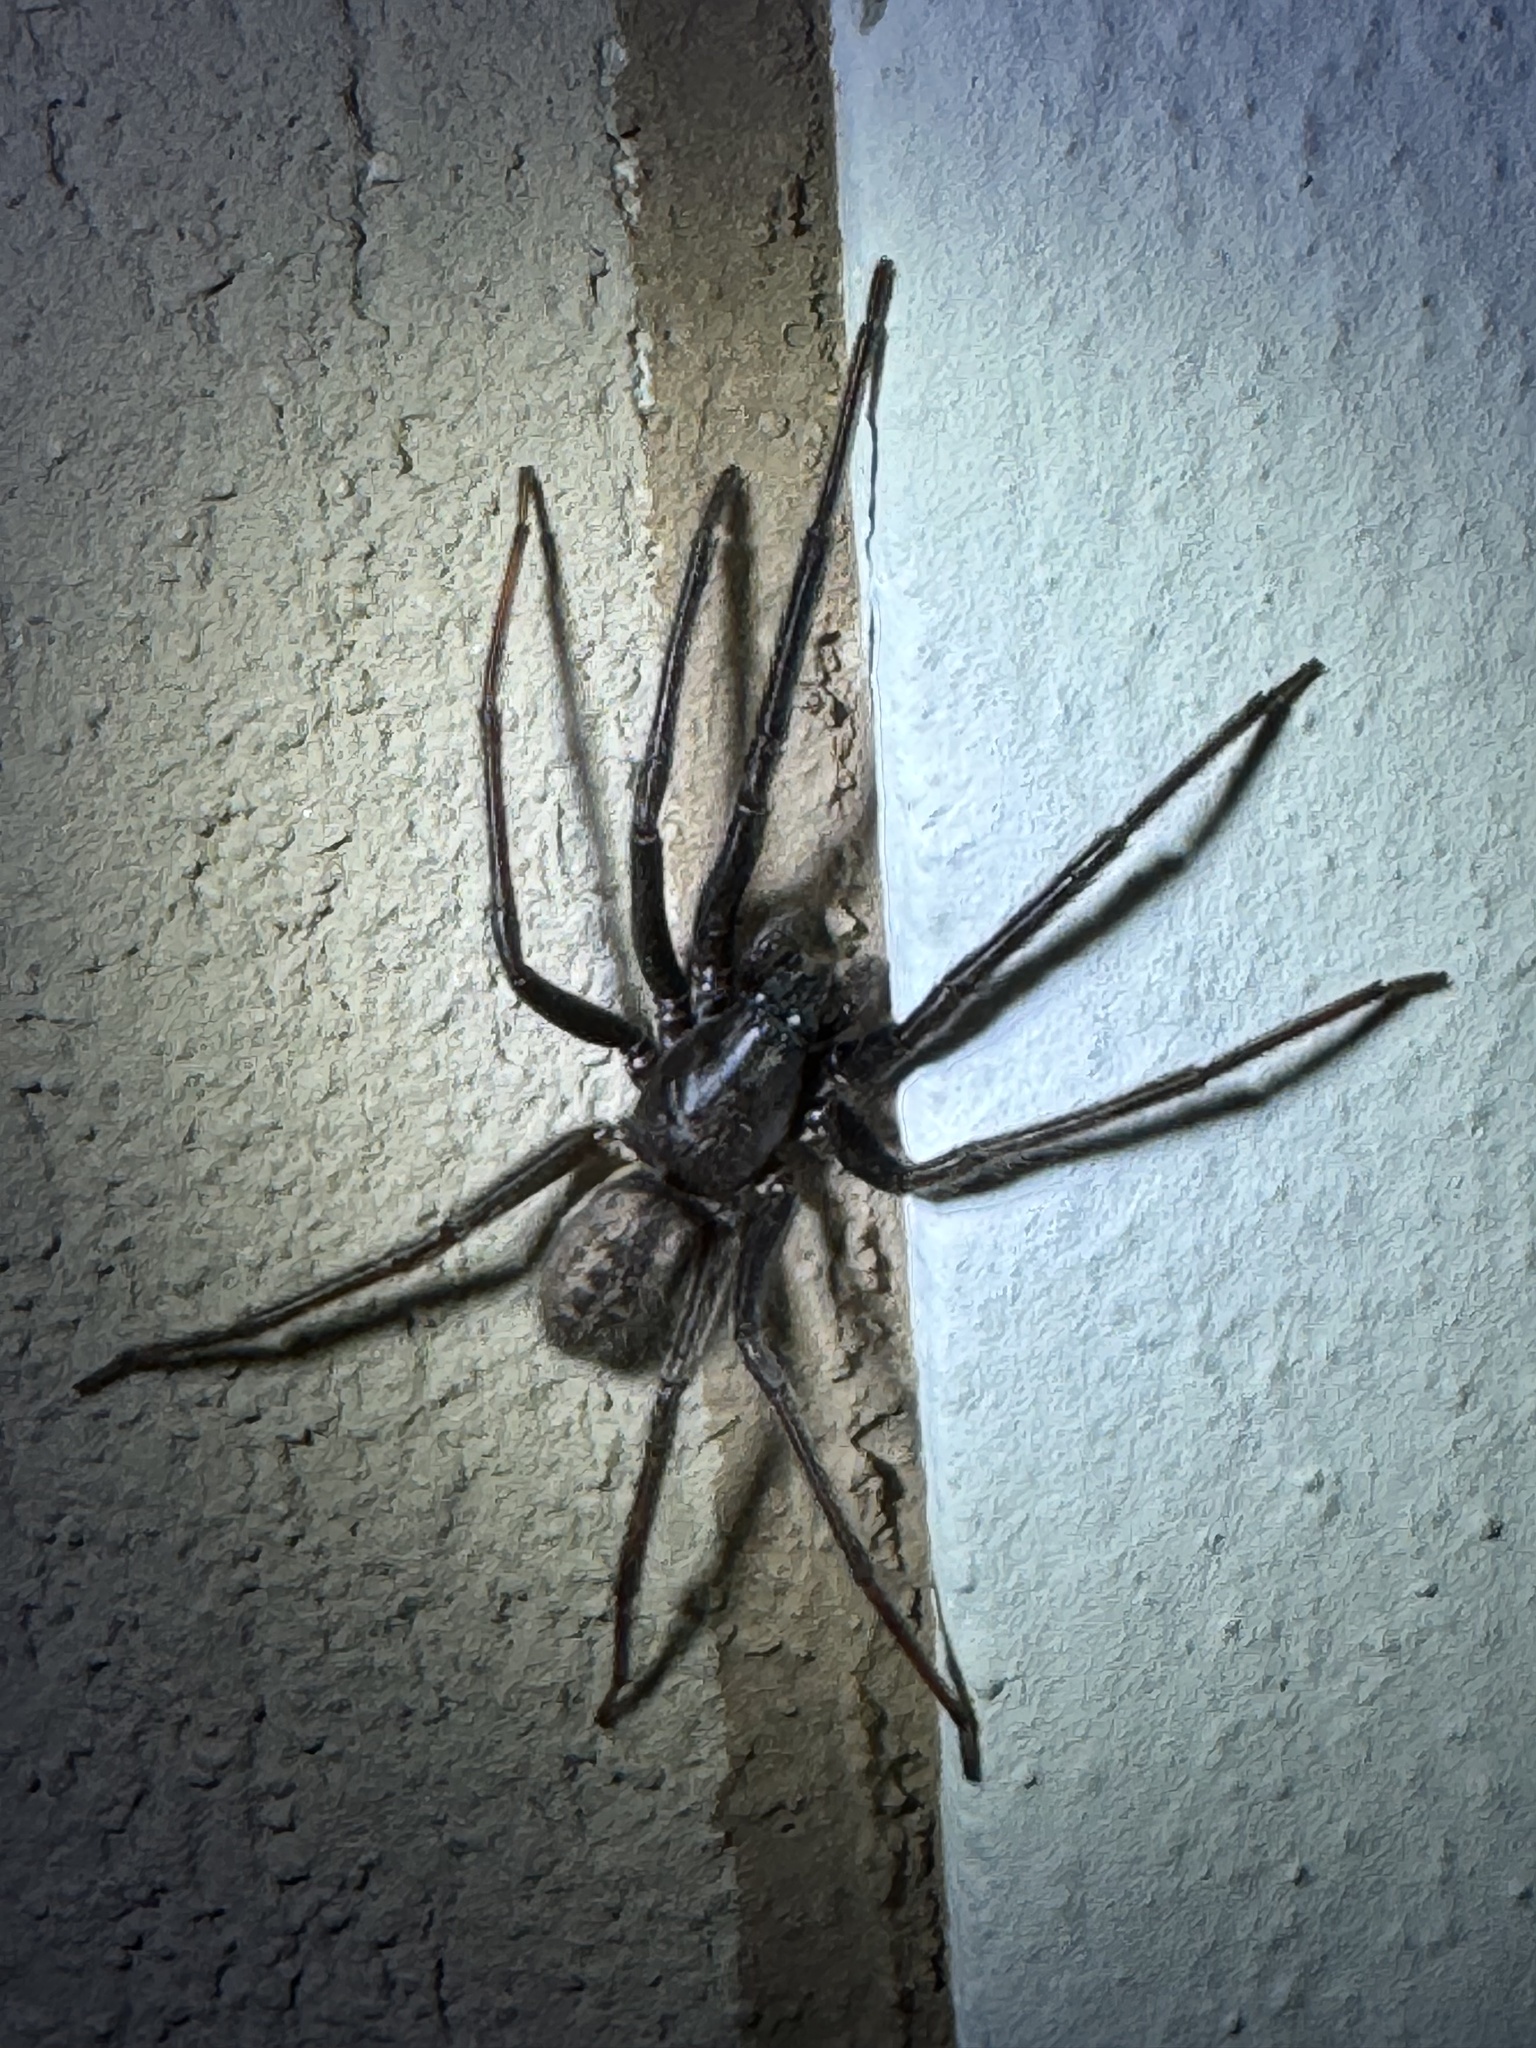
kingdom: Animalia
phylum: Arthropoda
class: Arachnida
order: Araneae
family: Segestriidae
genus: Segestria
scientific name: Segestria florentina
